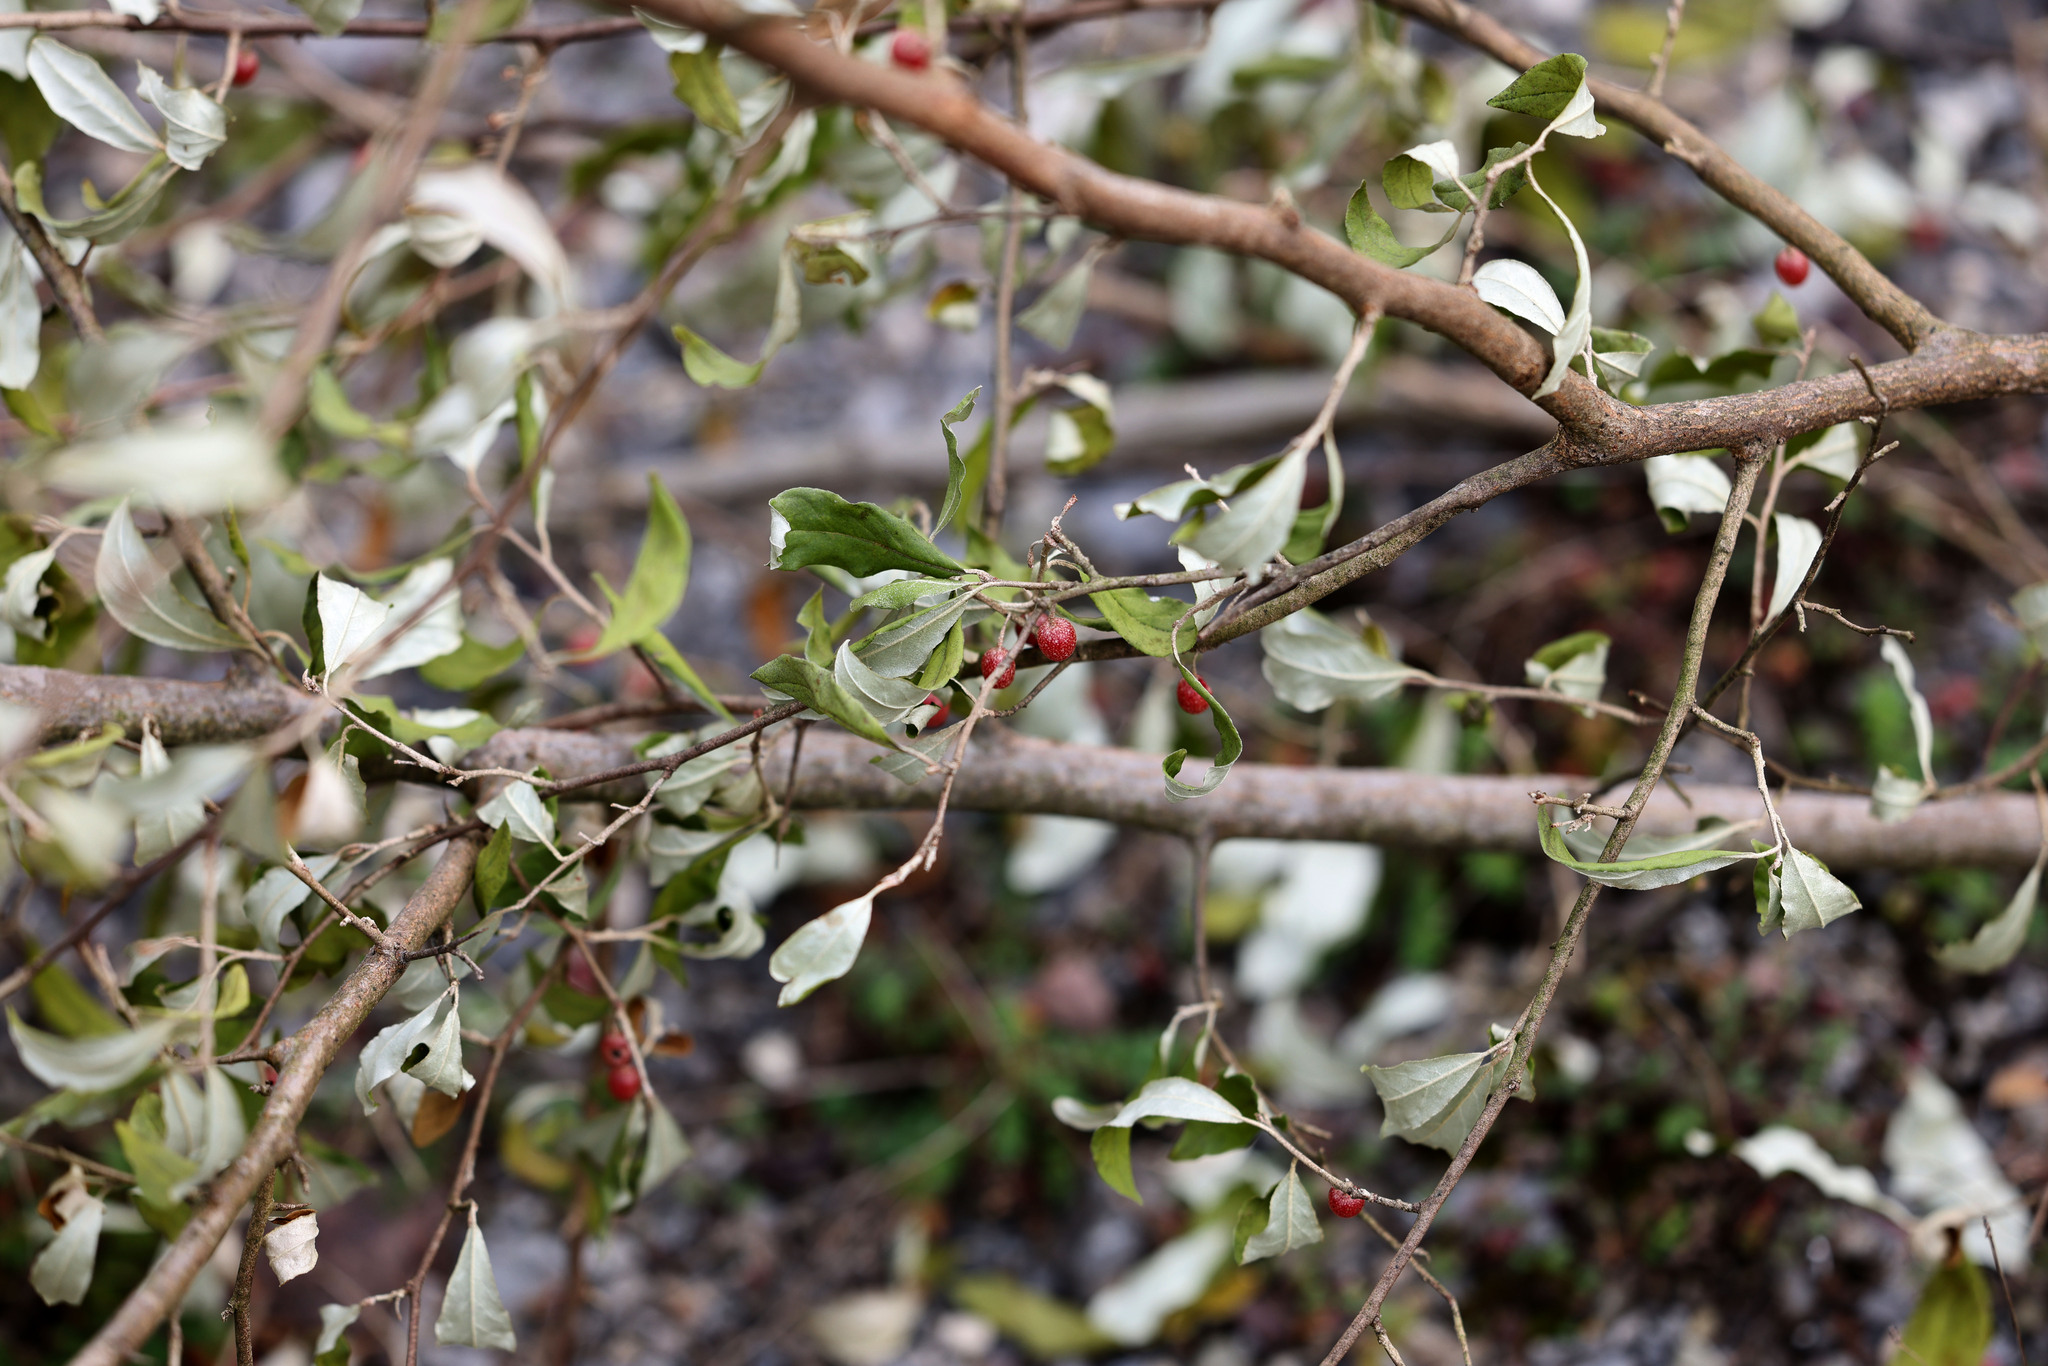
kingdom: Plantae
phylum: Tracheophyta
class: Magnoliopsida
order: Rosales
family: Elaeagnaceae
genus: Elaeagnus
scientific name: Elaeagnus umbellata
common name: Autumn olive
